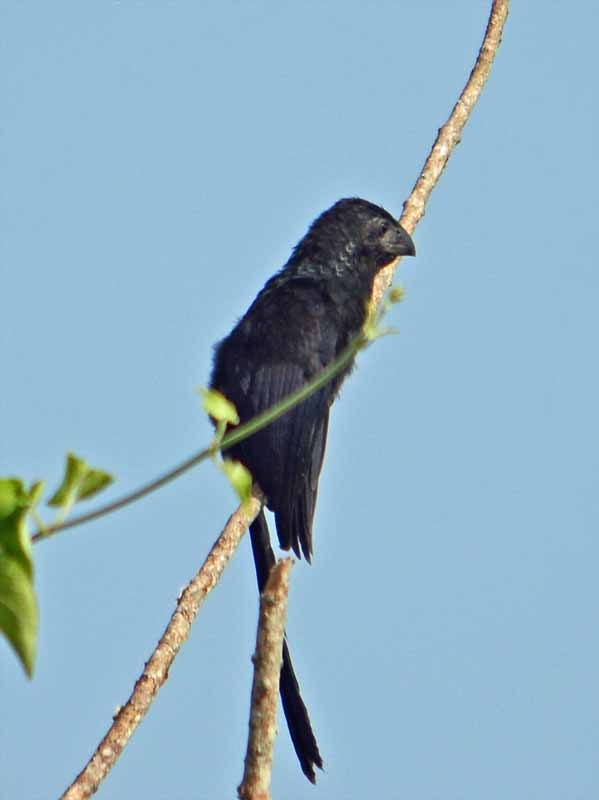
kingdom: Animalia
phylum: Chordata
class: Aves
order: Cuculiformes
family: Cuculidae
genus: Crotophaga
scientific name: Crotophaga sulcirostris
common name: Groove-billed ani
